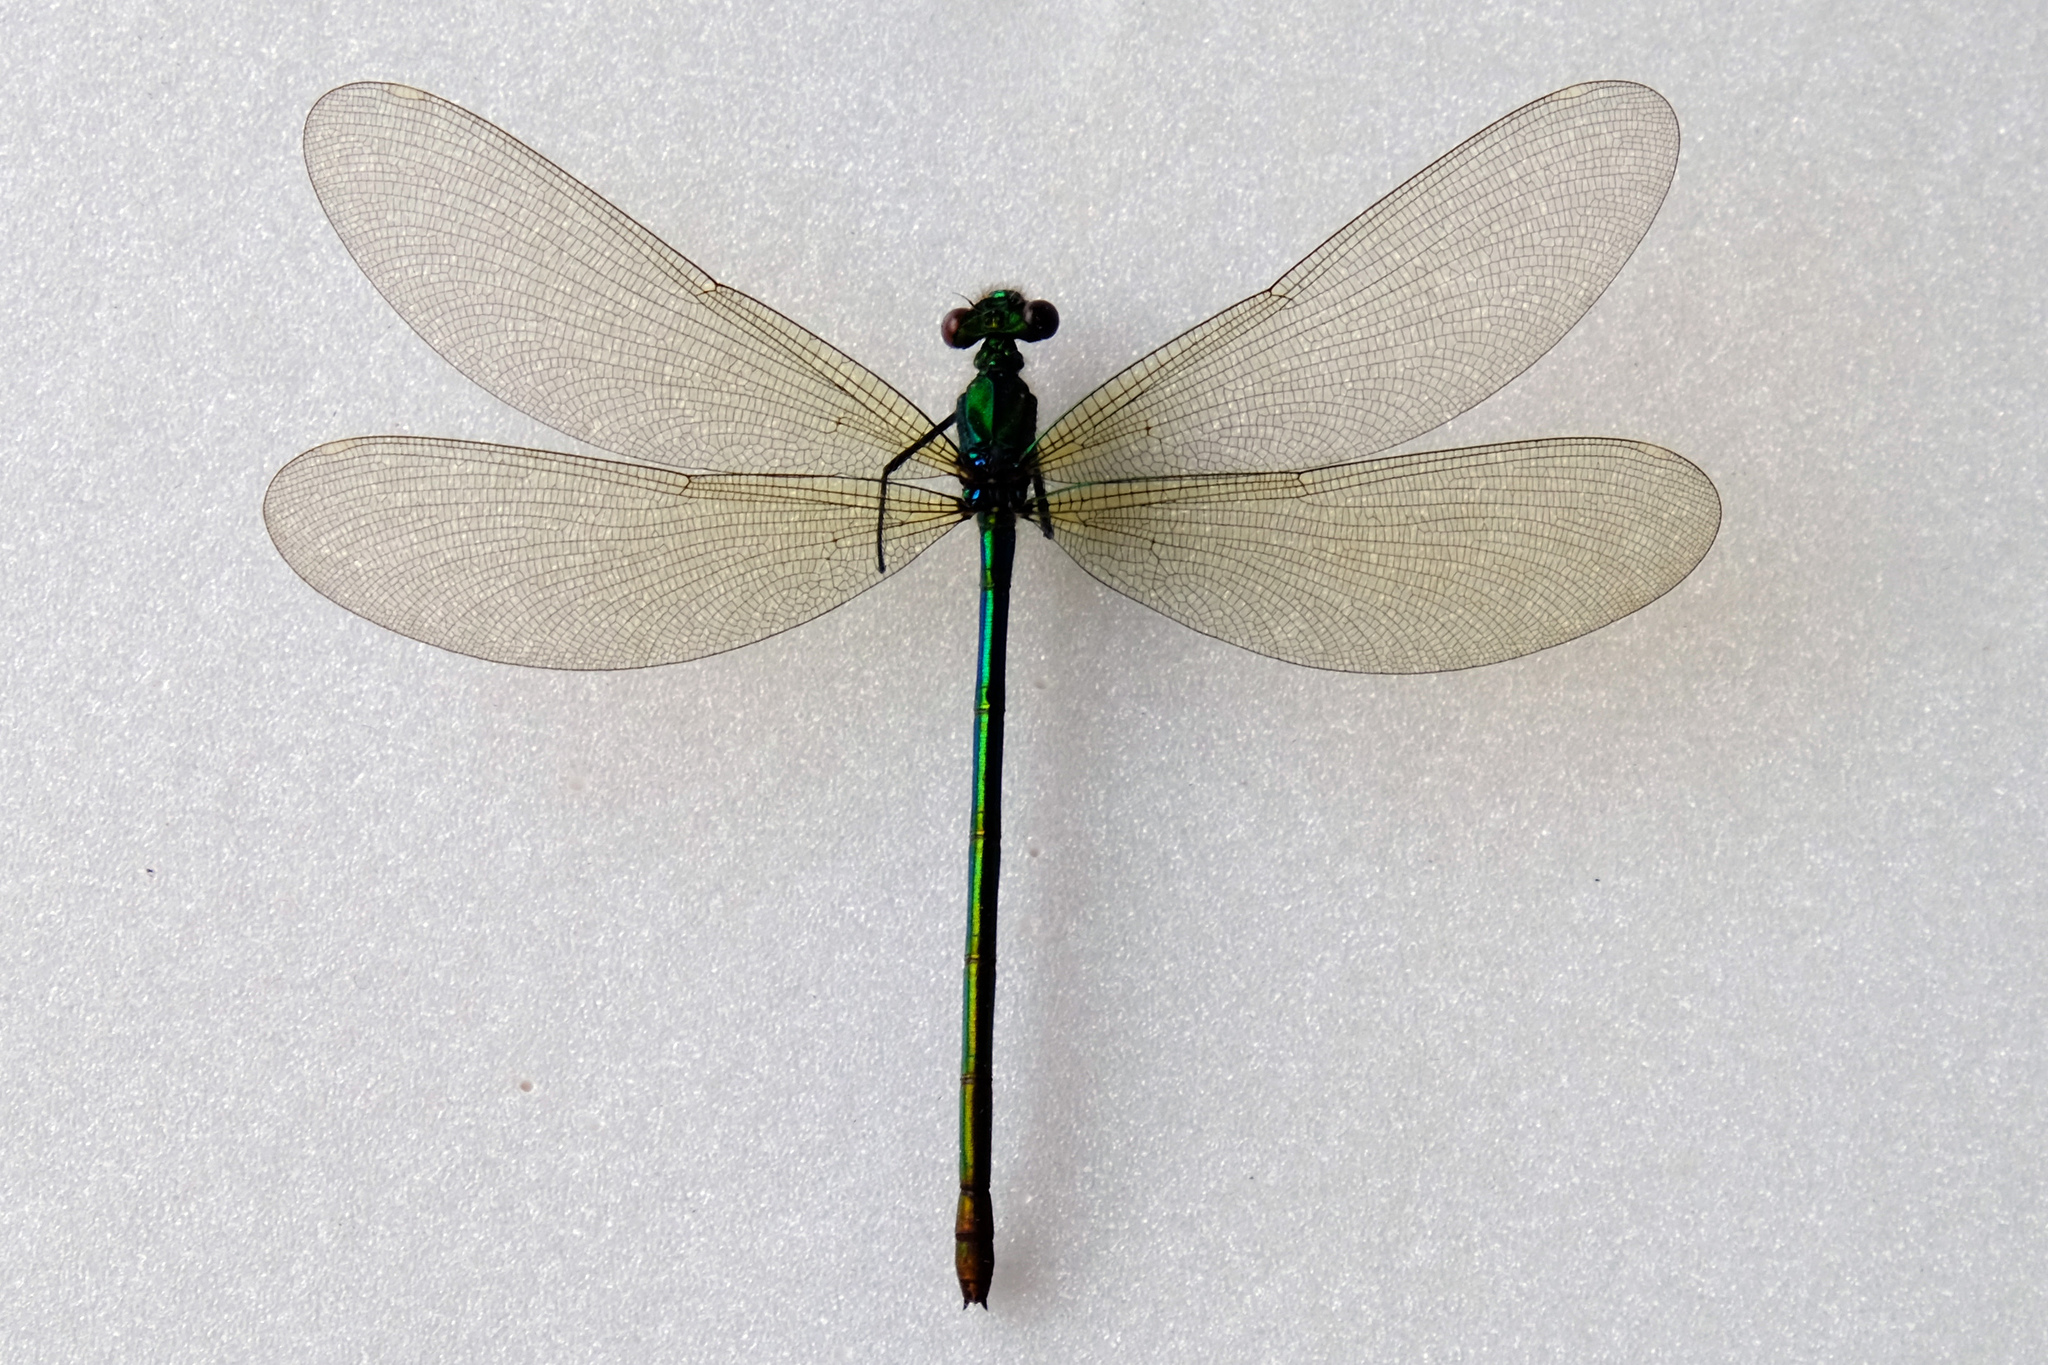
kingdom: Animalia
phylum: Arthropoda
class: Insecta
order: Odonata
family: Calopterygidae
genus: Calopteryx
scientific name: Calopteryx splendens
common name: Banded demoiselle
